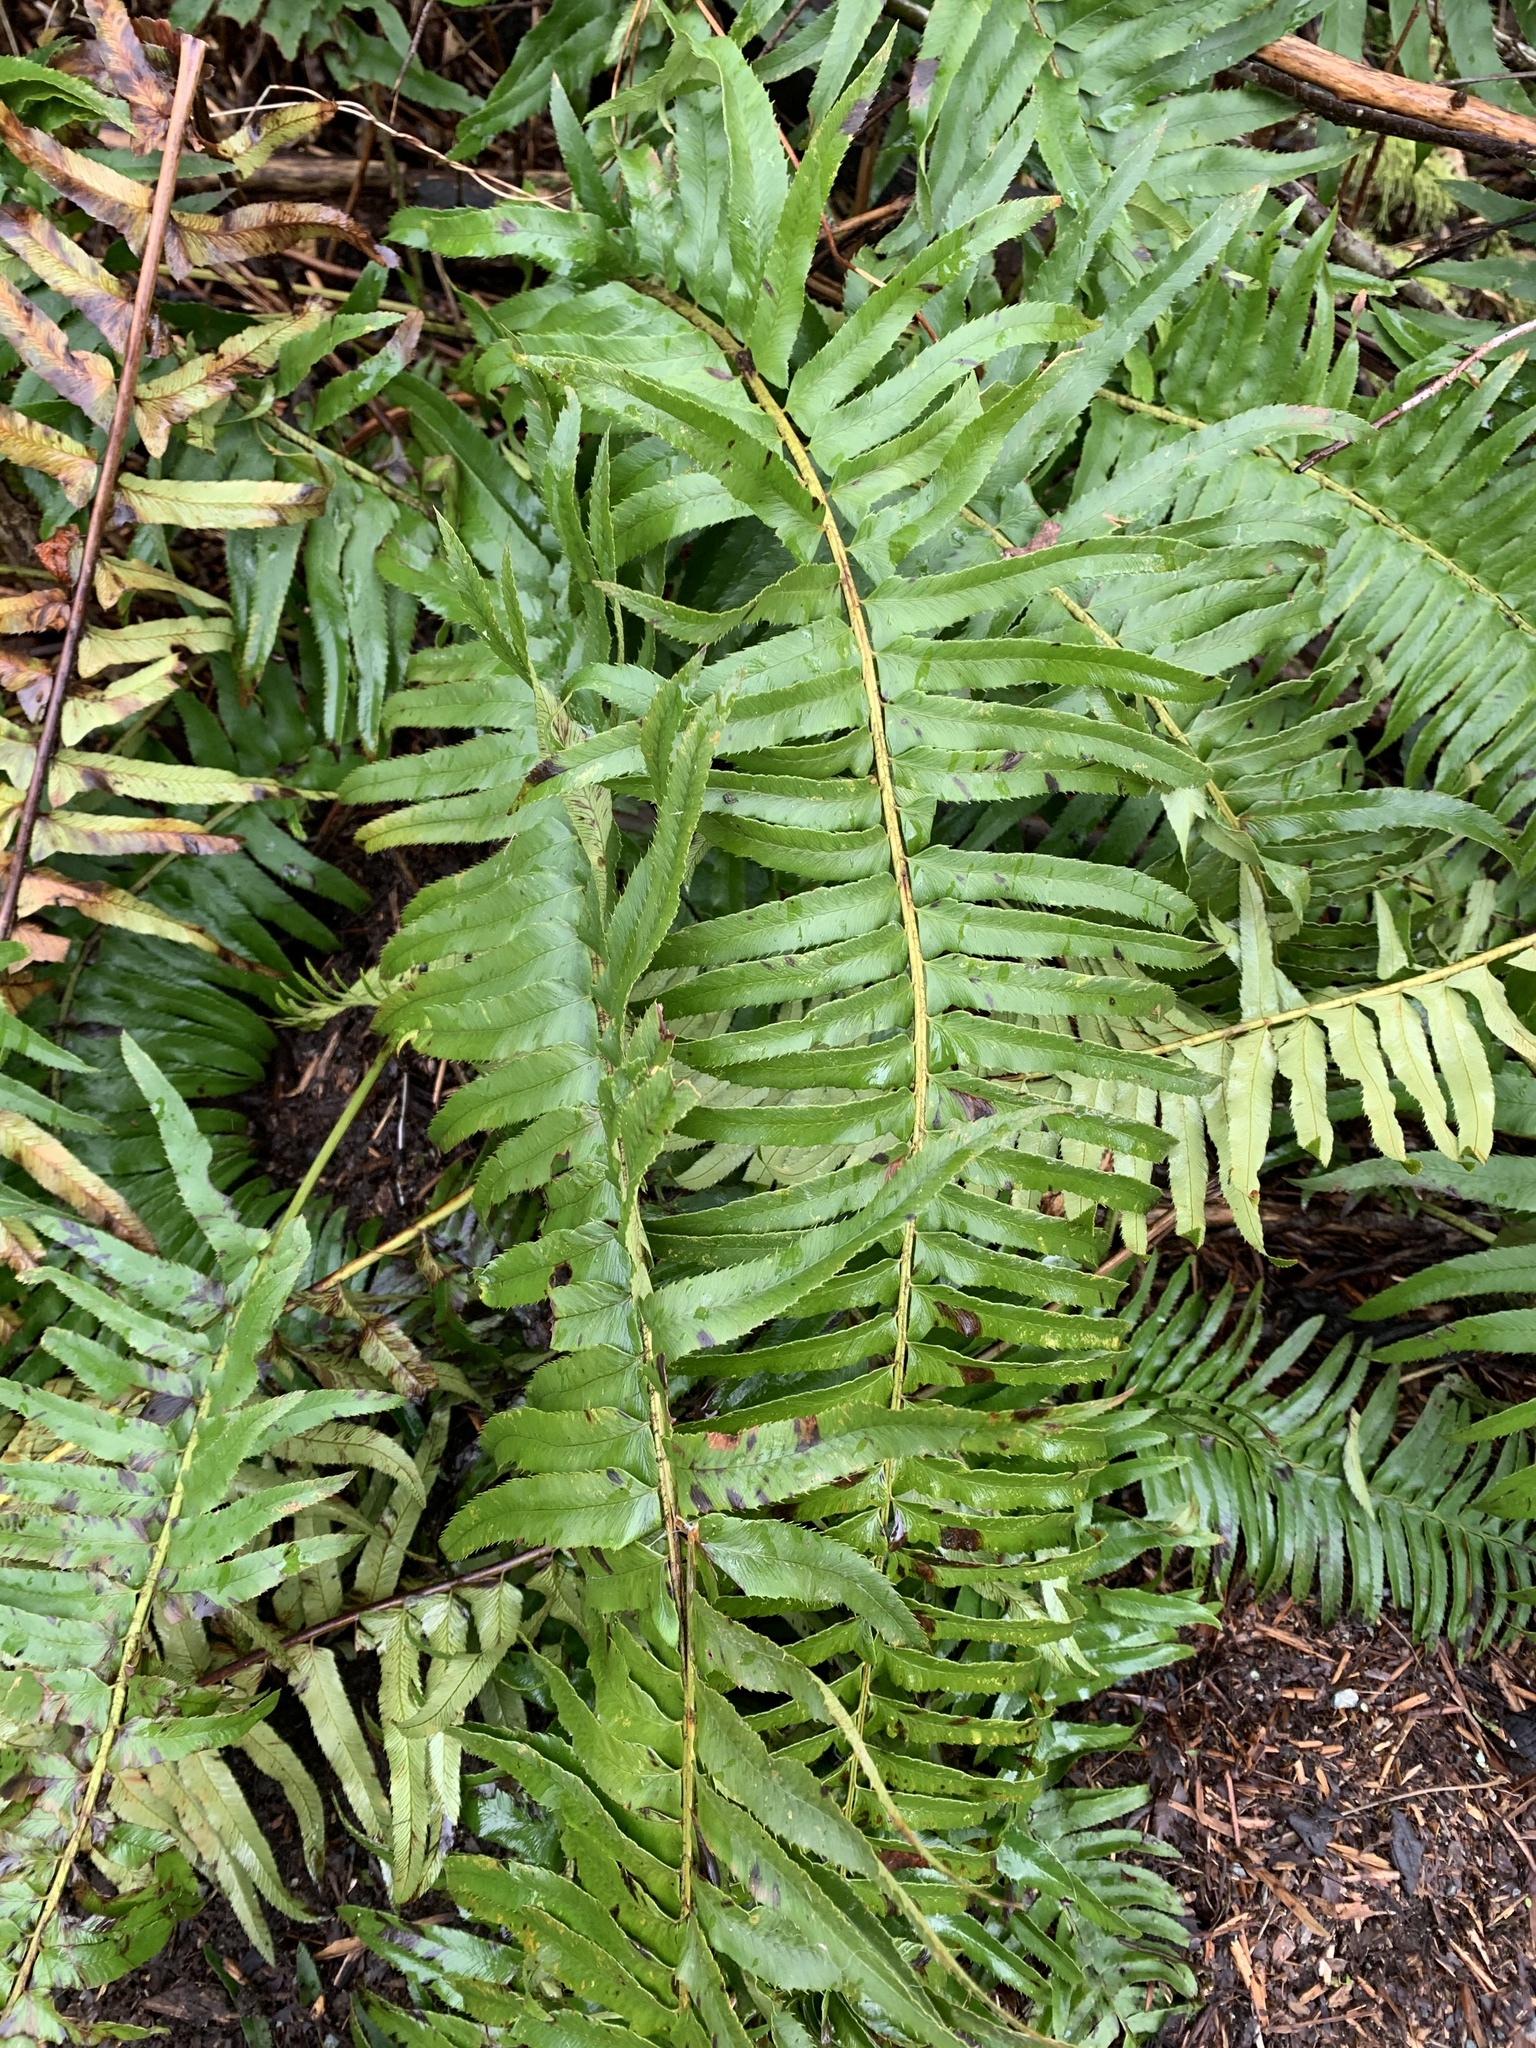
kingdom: Plantae
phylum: Tracheophyta
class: Polypodiopsida
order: Polypodiales
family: Dryopteridaceae
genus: Polystichum
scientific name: Polystichum munitum
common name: Western sword-fern
